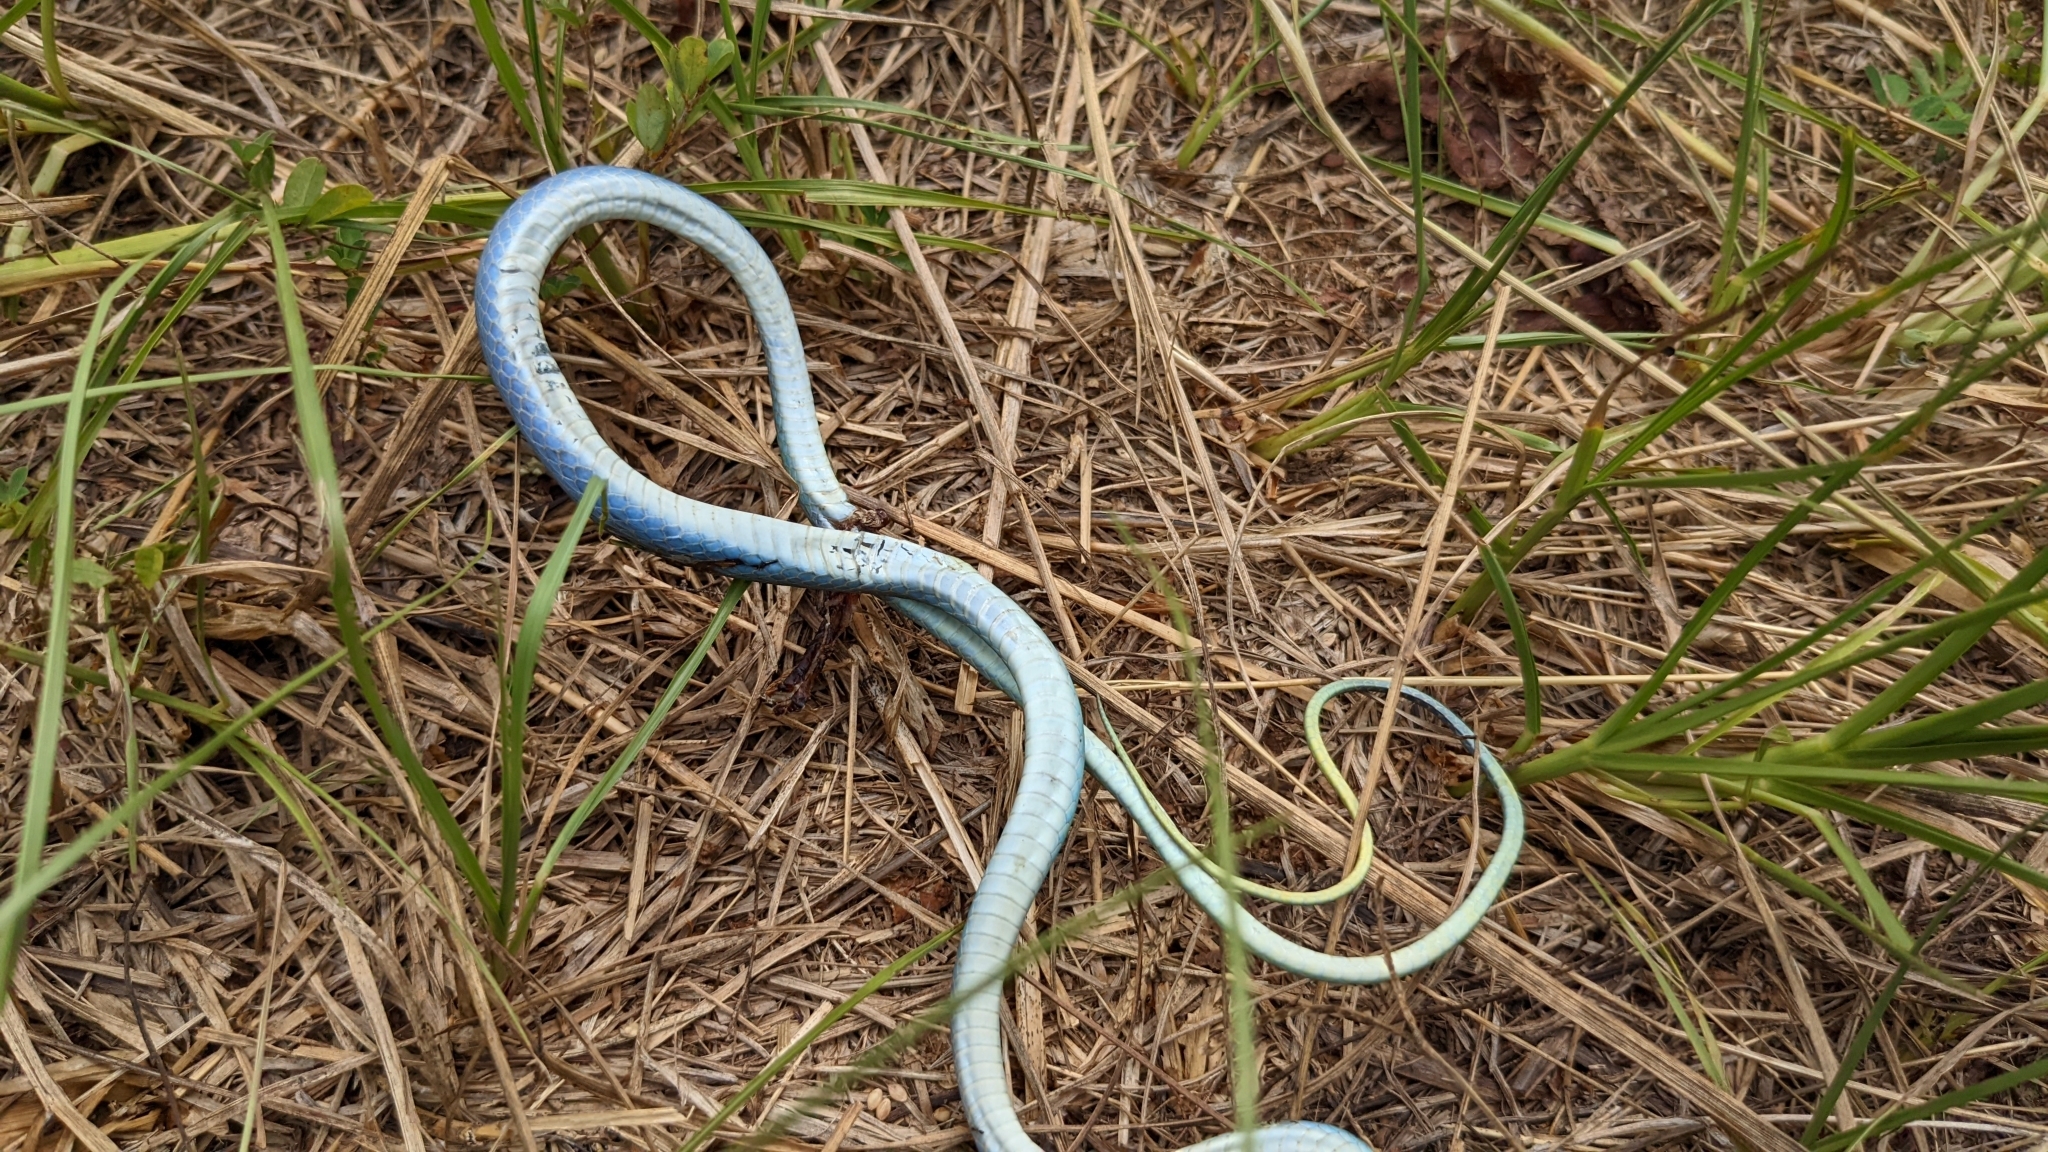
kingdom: Animalia
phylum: Chordata
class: Squamata
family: Colubridae
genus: Opheodrys
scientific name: Opheodrys aestivus
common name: Rough greensnake
